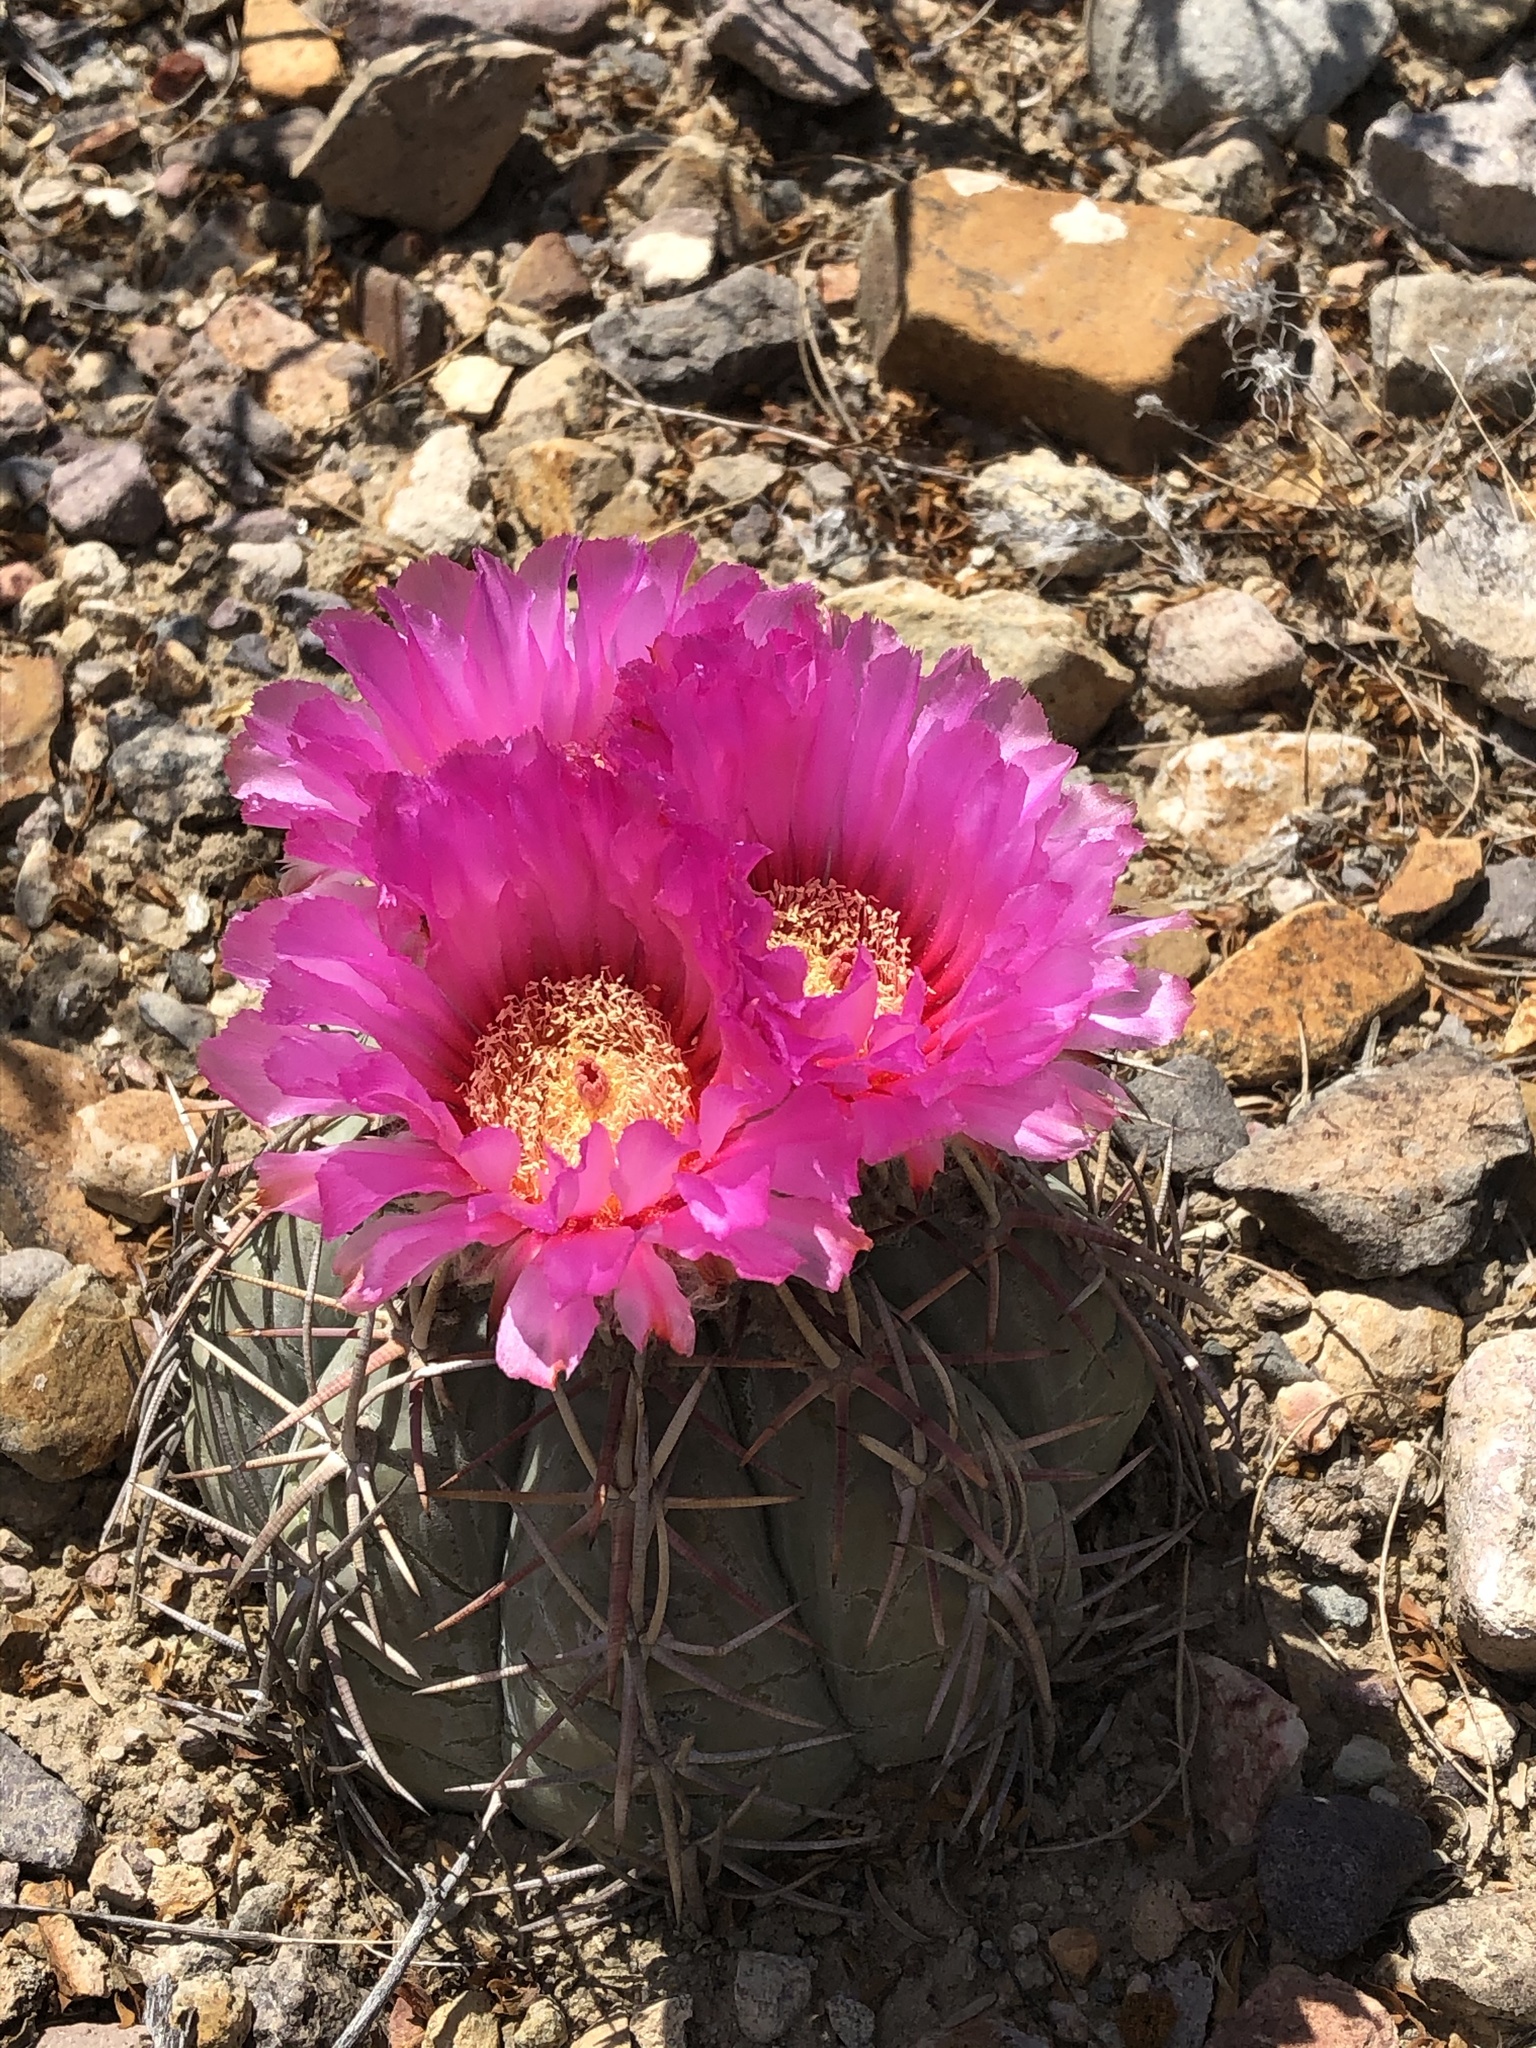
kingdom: Plantae
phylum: Tracheophyta
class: Magnoliopsida
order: Caryophyllales
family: Cactaceae
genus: Echinocactus
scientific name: Echinocactus horizonthalonius
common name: Devilshead
